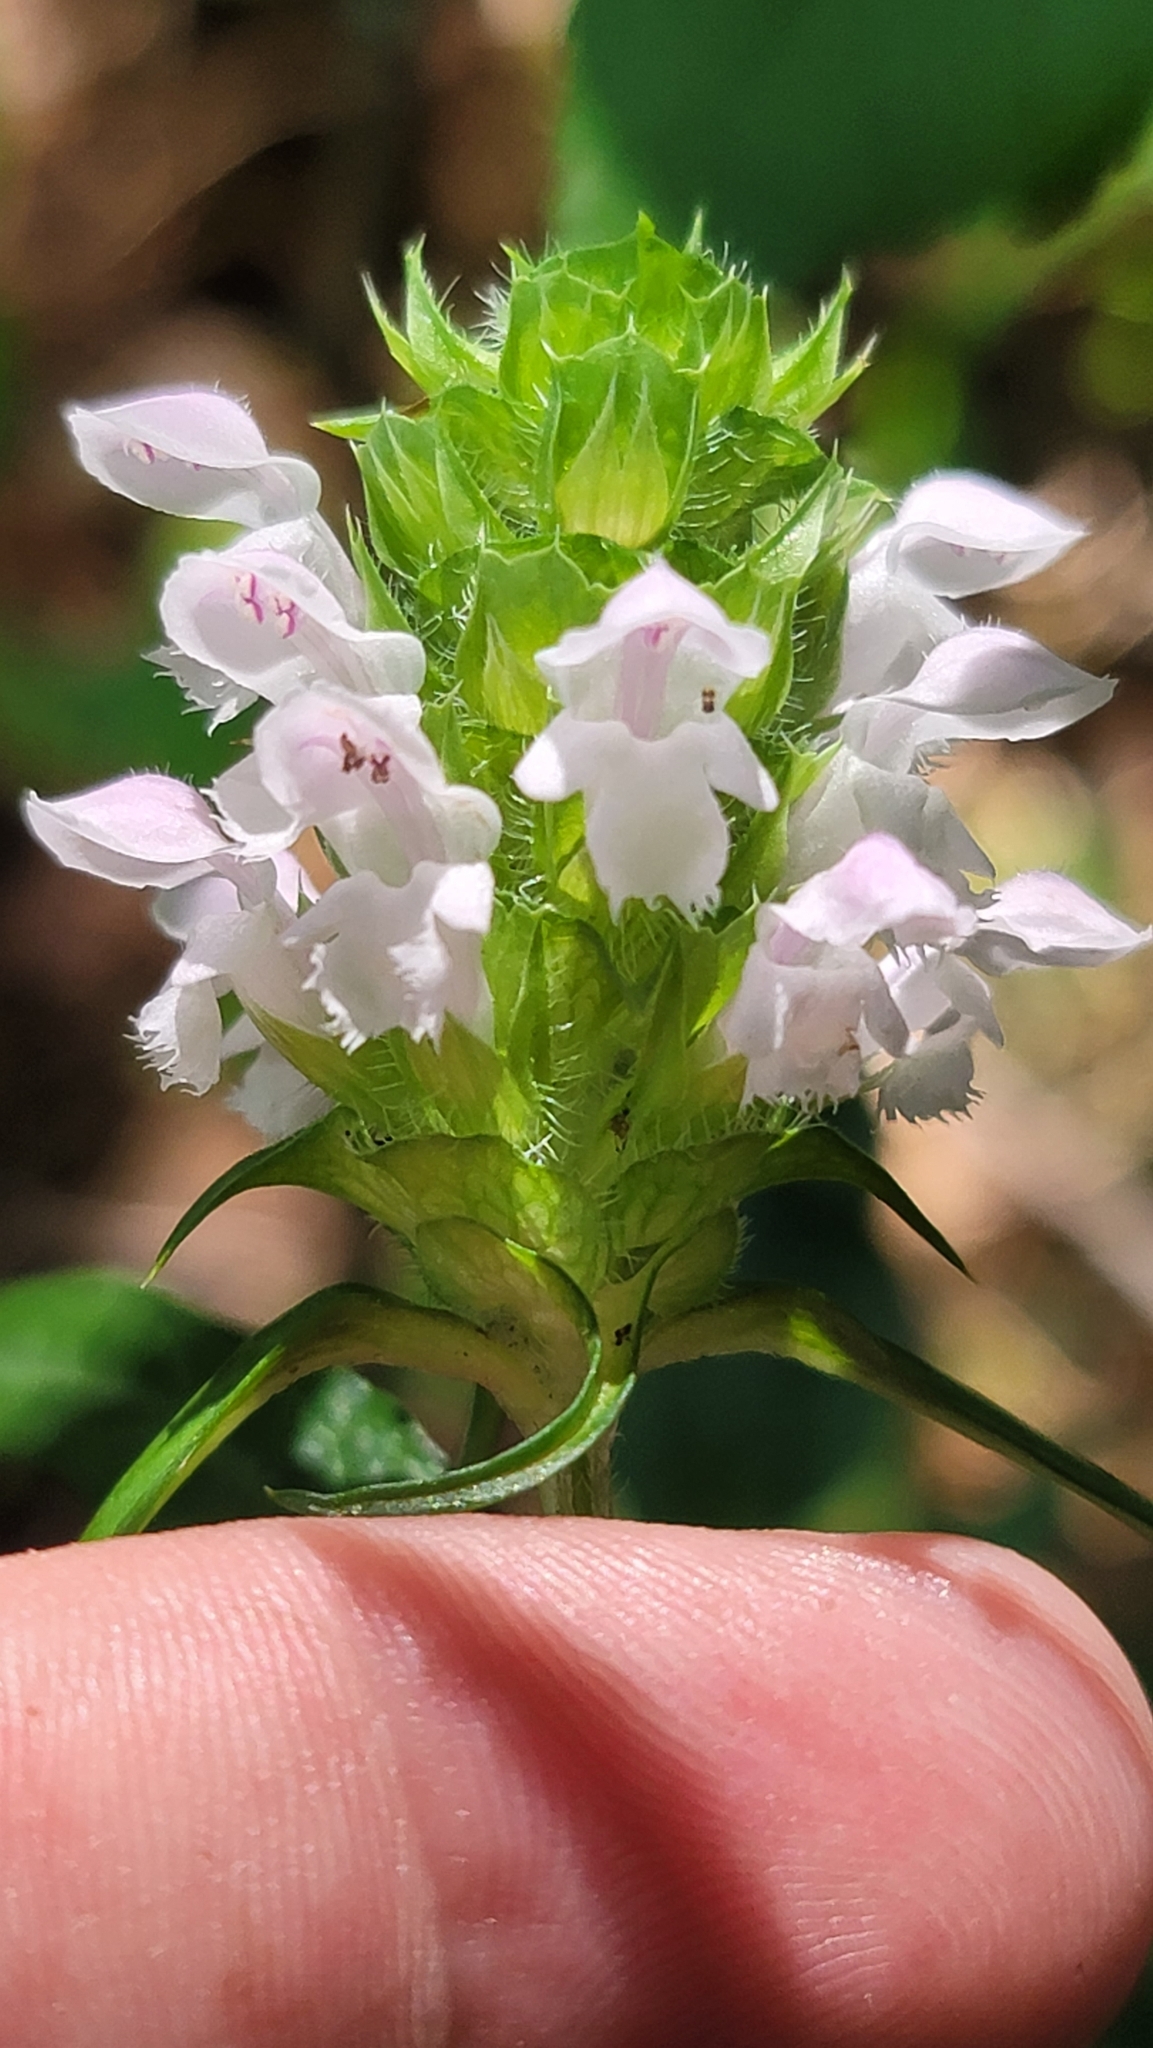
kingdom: Plantae
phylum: Tracheophyta
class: Magnoliopsida
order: Lamiales
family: Lamiaceae
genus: Prunella
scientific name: Prunella vulgaris
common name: Heal-all
